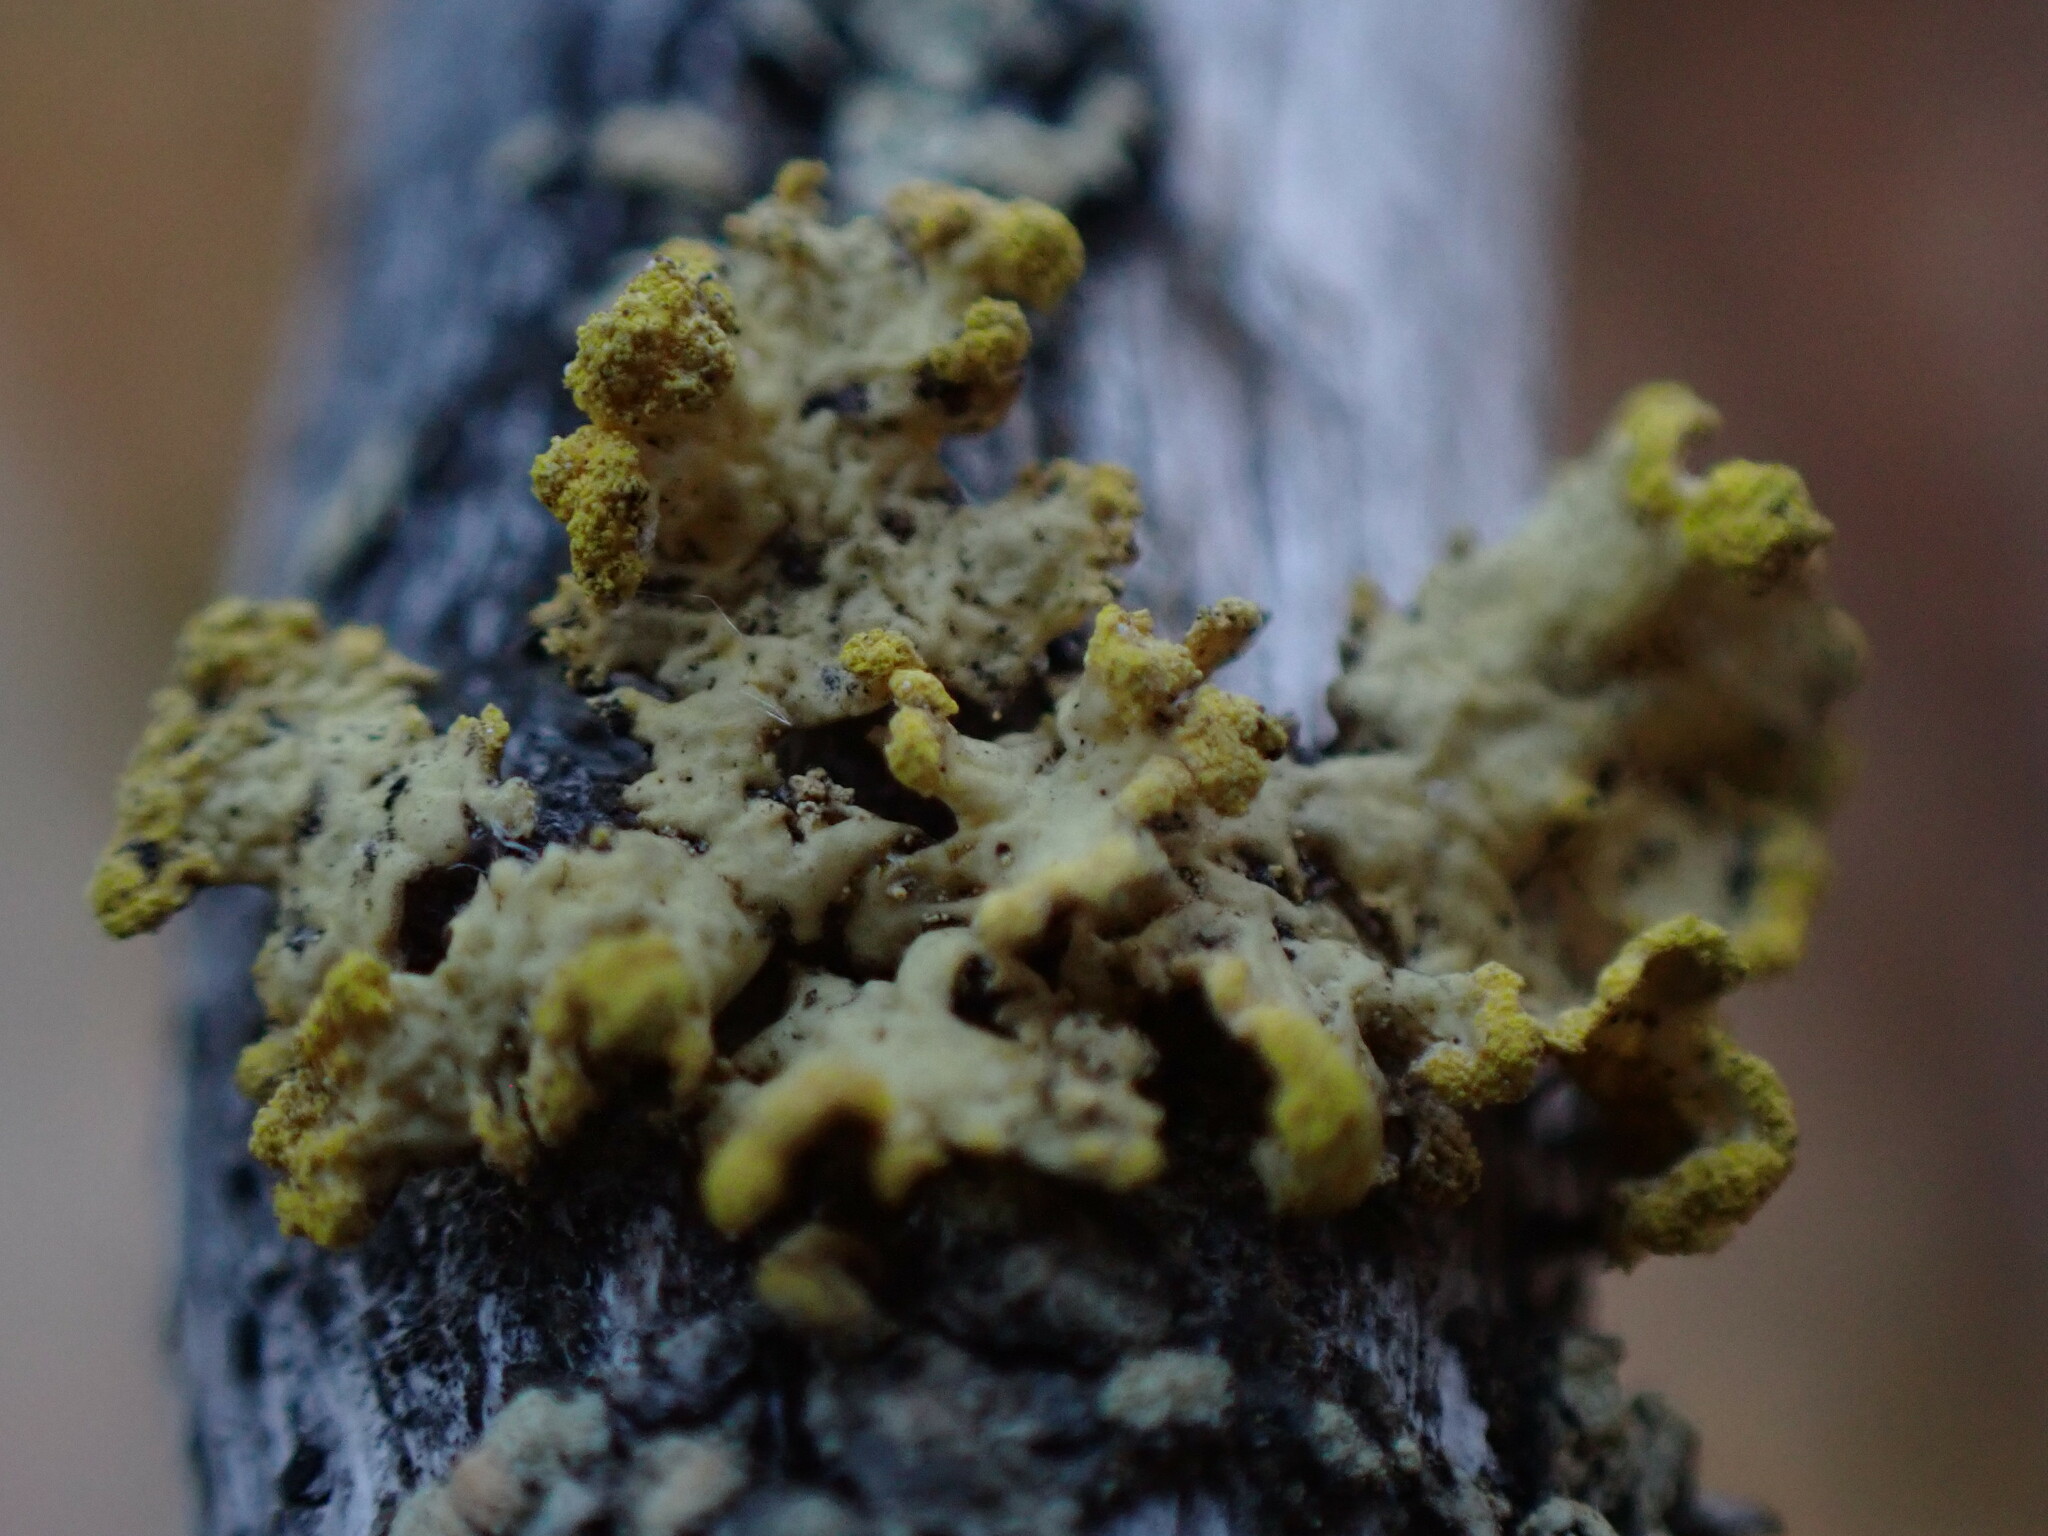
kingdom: Fungi
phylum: Ascomycota
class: Lecanoromycetes
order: Lecanorales
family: Parmeliaceae
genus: Vulpicida
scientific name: Vulpicida pinastri
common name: Powdered sunshine lichen
